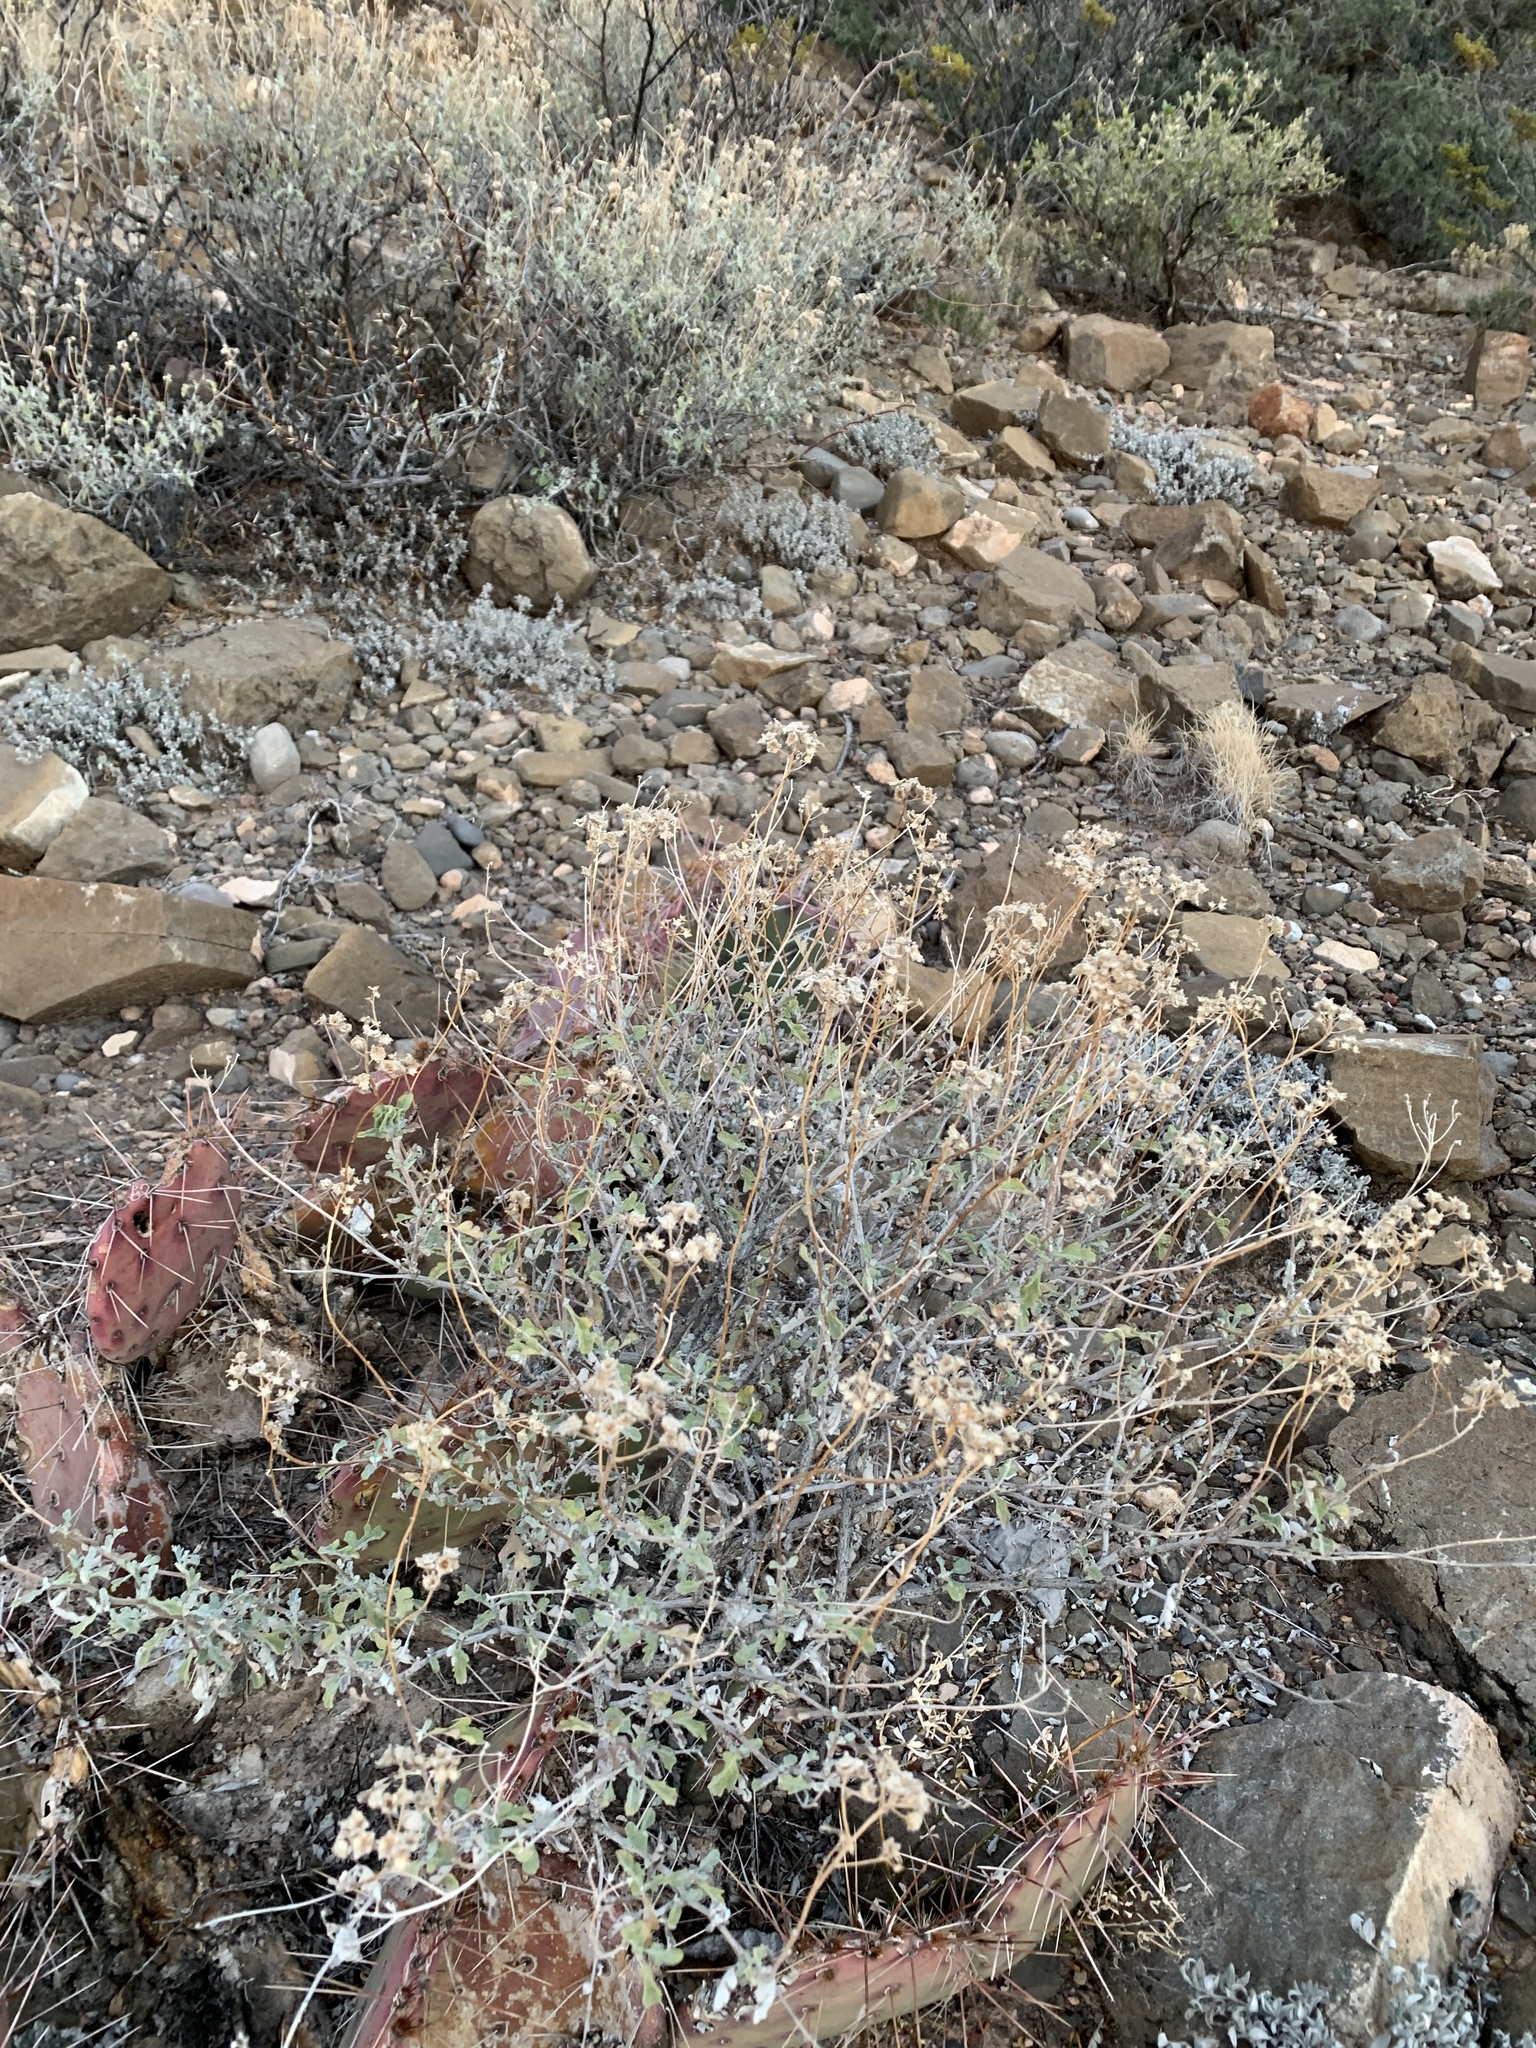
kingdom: Plantae
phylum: Tracheophyta
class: Magnoliopsida
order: Asterales
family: Asteraceae
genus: Parthenium
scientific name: Parthenium incanum
